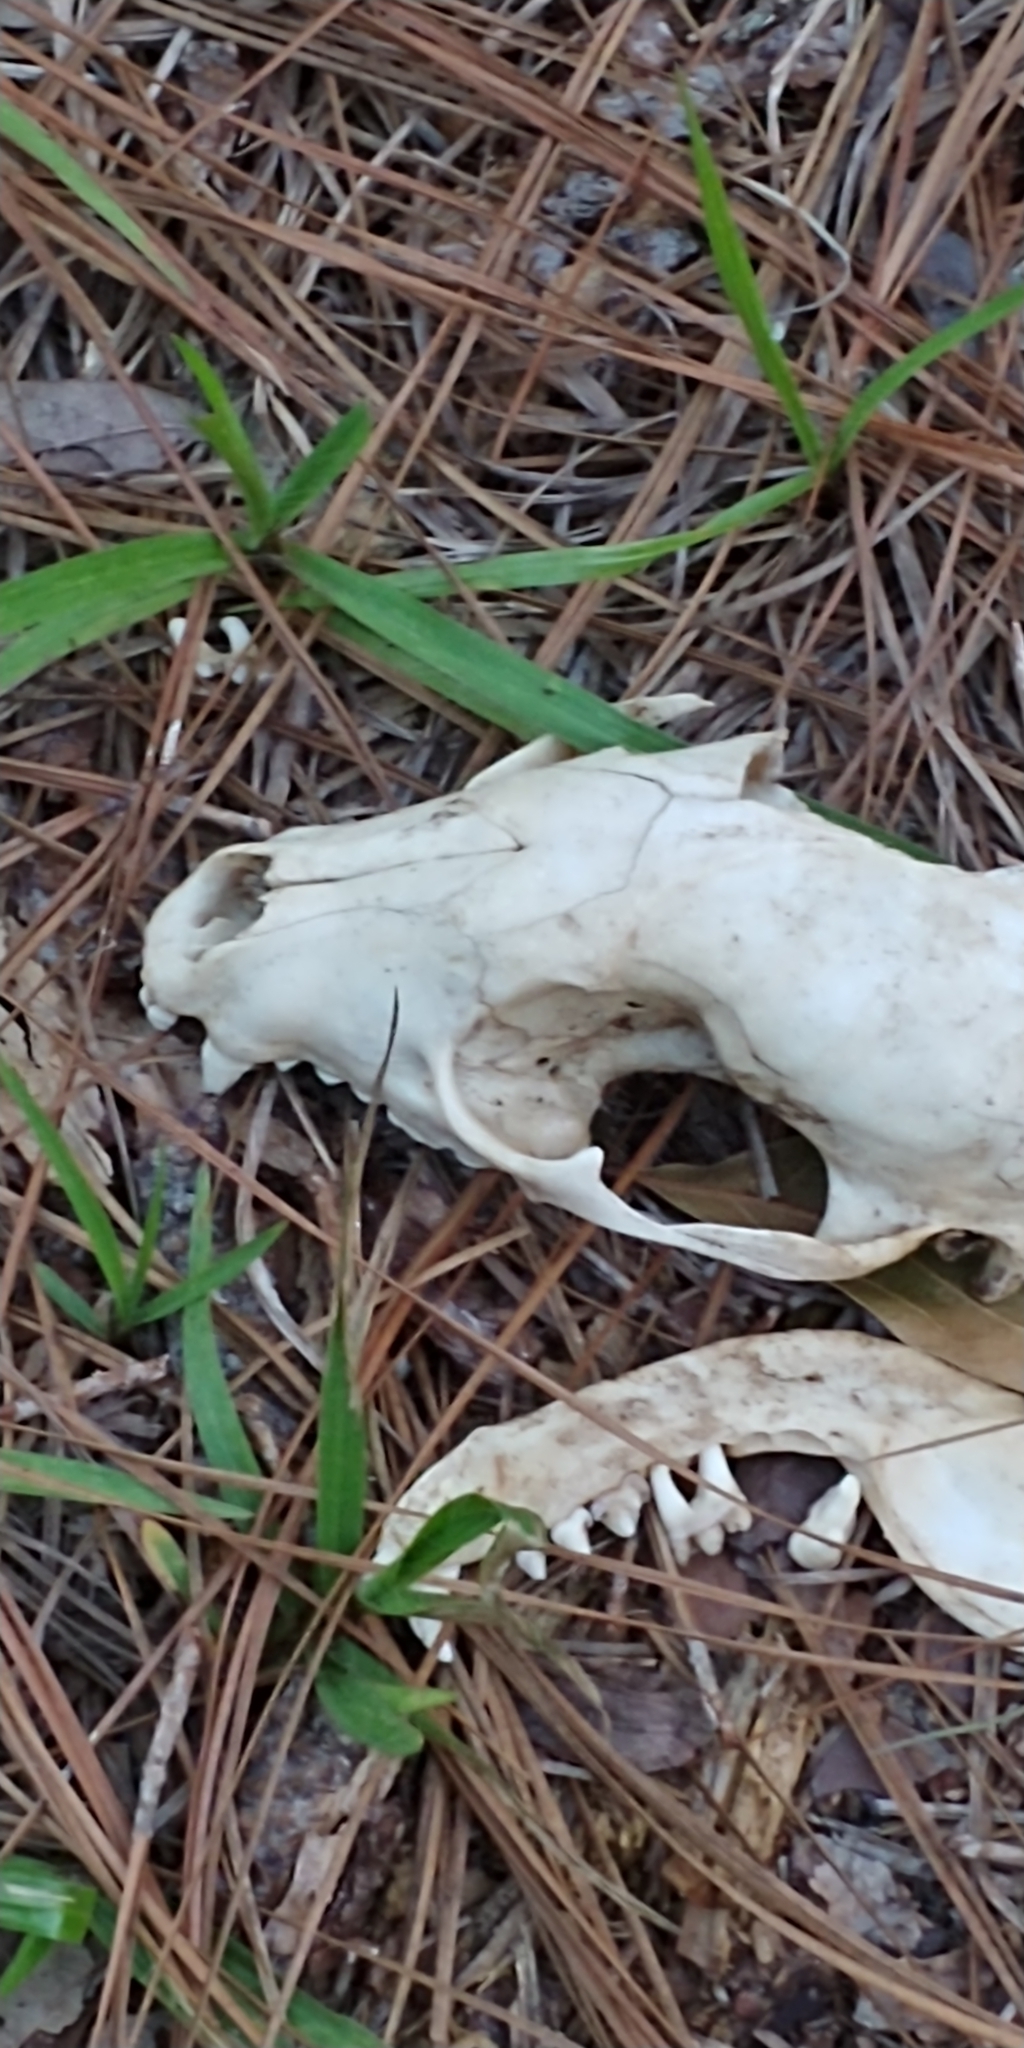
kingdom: Animalia
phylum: Chordata
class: Mammalia
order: Carnivora
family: Procyonidae
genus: Procyon
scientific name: Procyon lotor
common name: Raccoon
